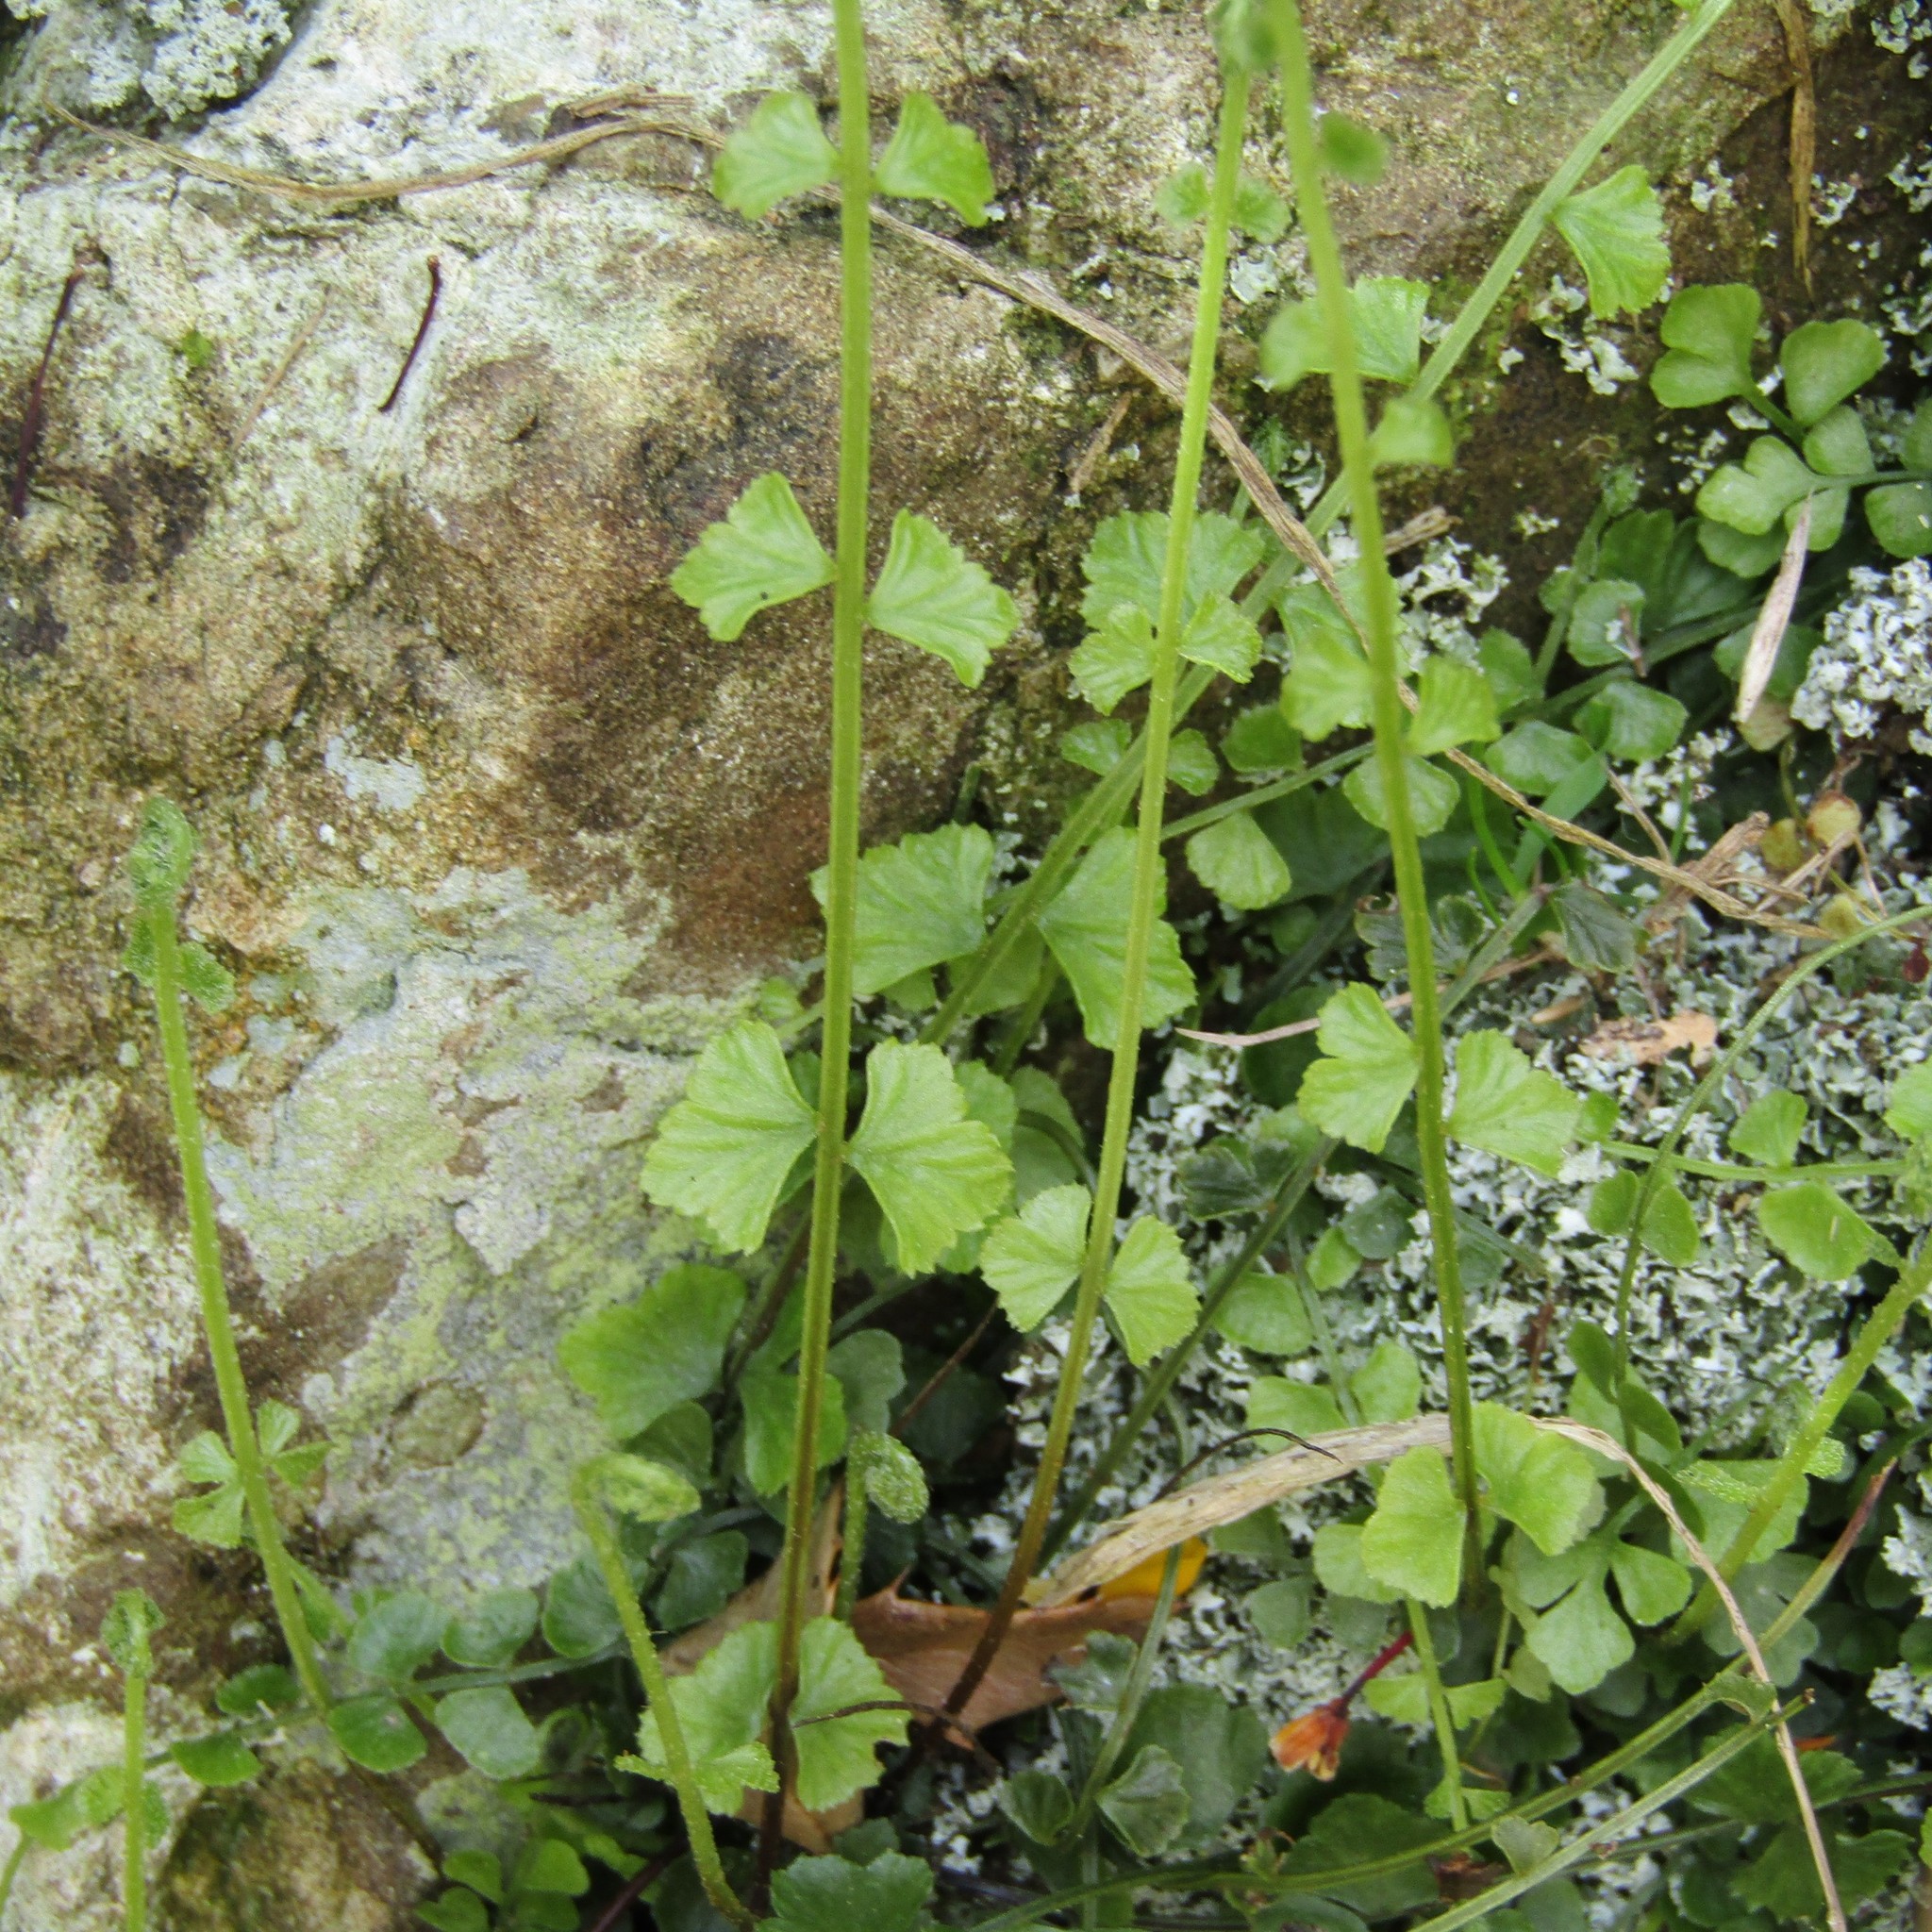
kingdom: Plantae
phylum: Tracheophyta
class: Polypodiopsida
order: Polypodiales
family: Aspleniaceae
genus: Asplenium
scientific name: Asplenium flabellifolium
